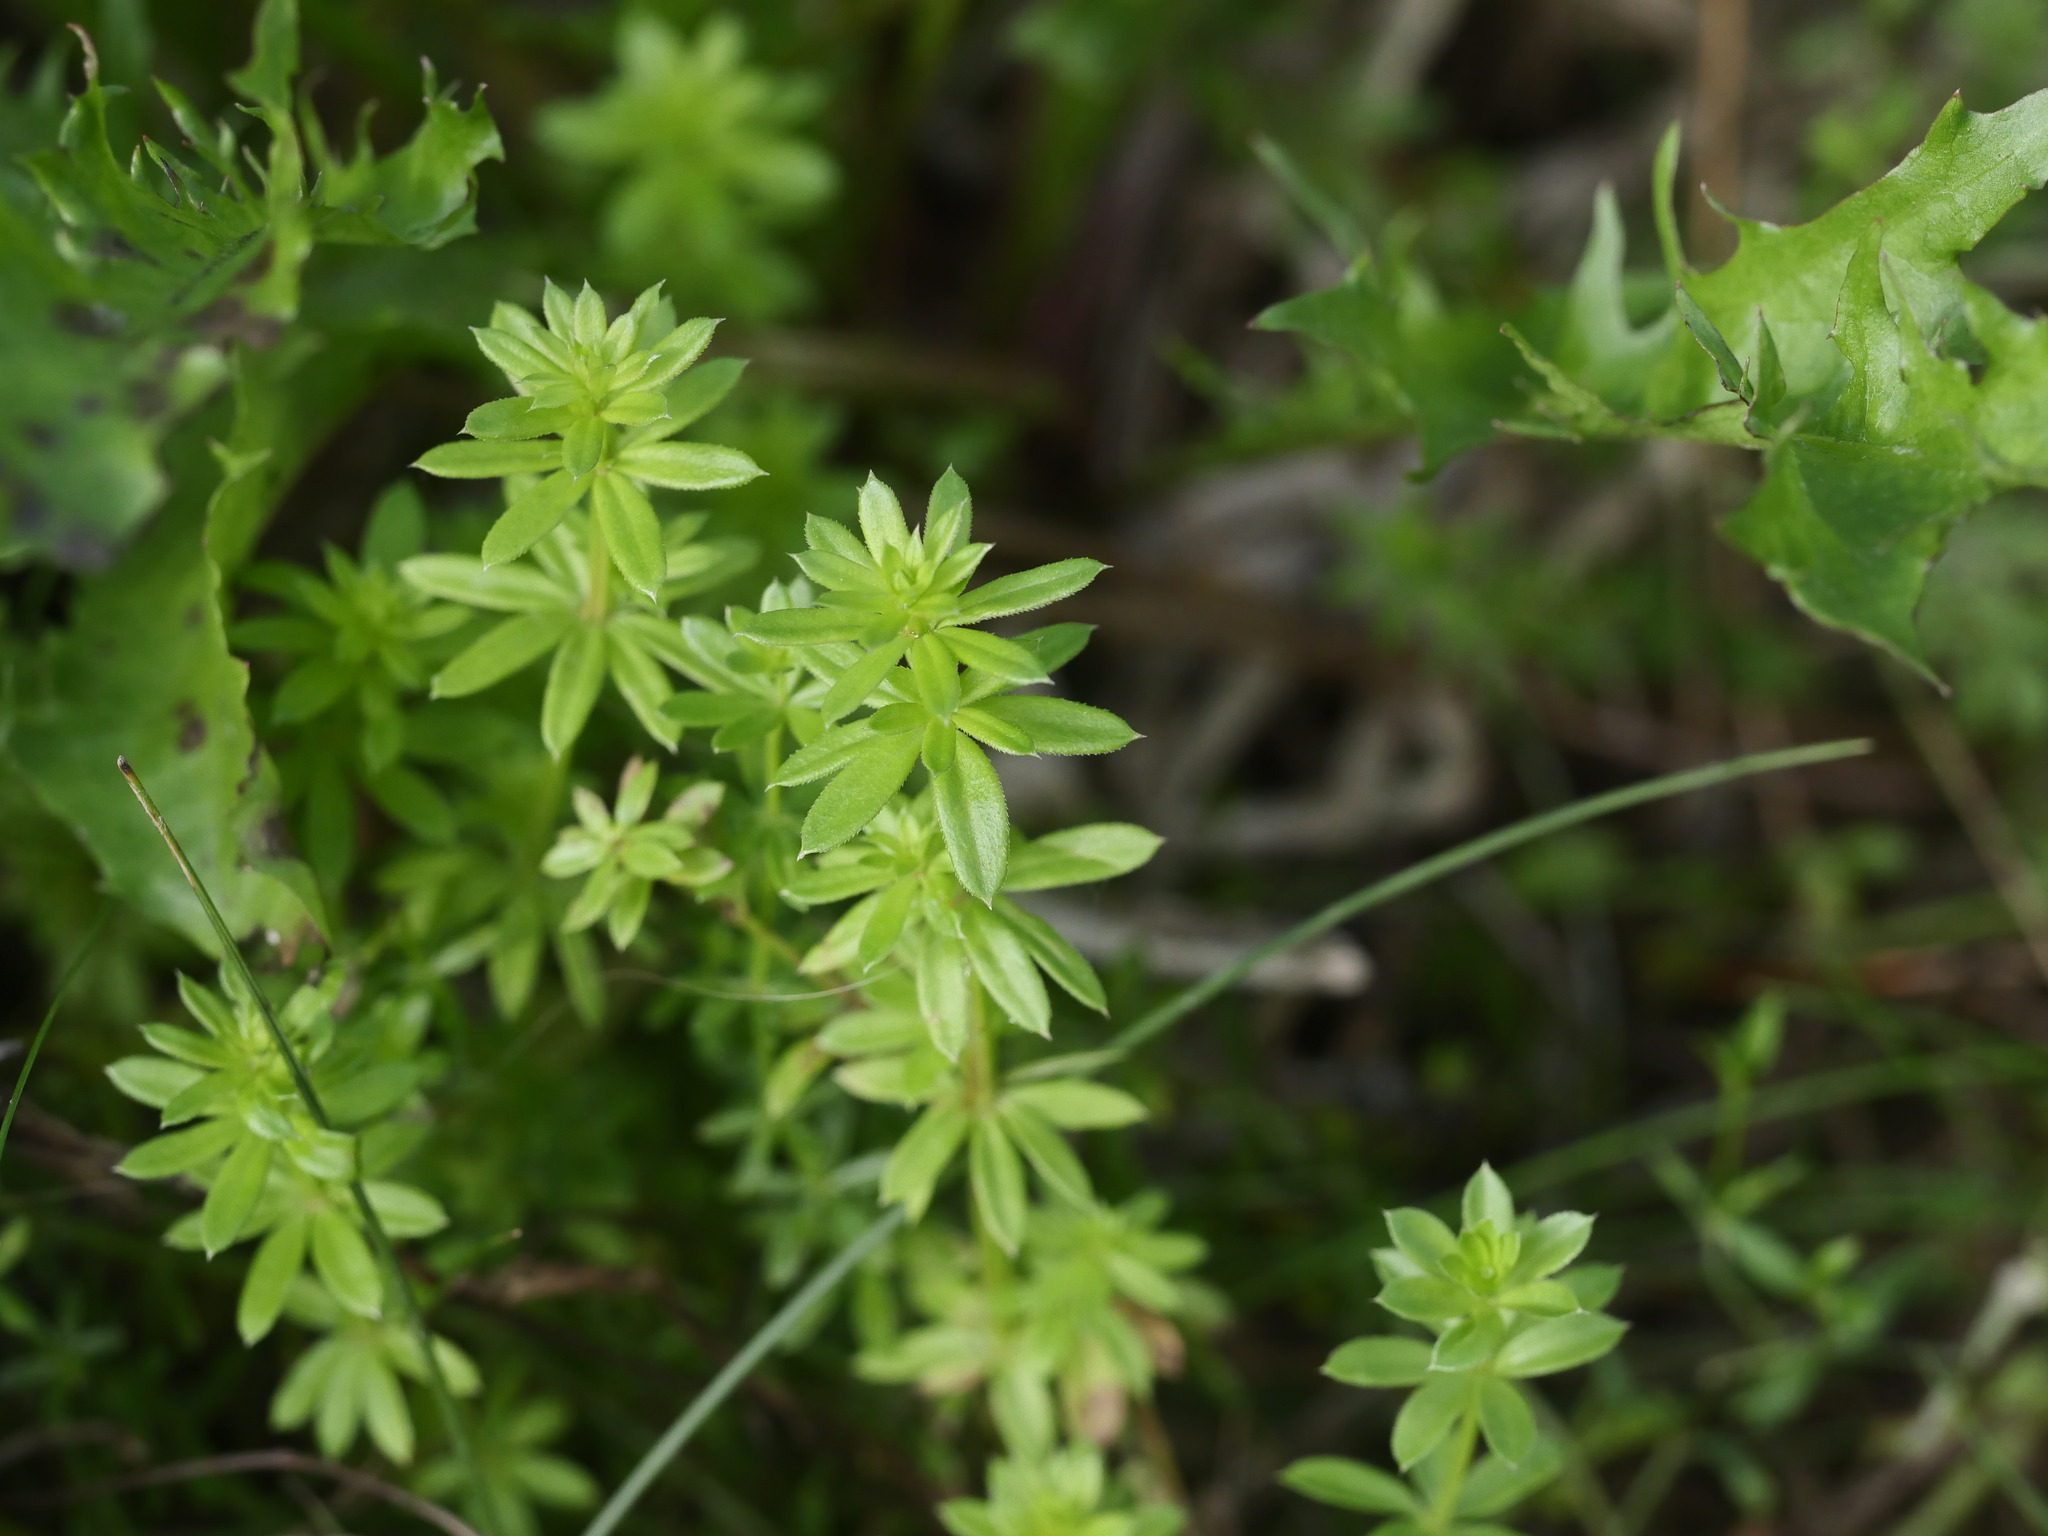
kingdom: Plantae
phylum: Tracheophyta
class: Magnoliopsida
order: Gentianales
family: Rubiaceae
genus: Galium
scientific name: Galium mollugo
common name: Hedge bedstraw
